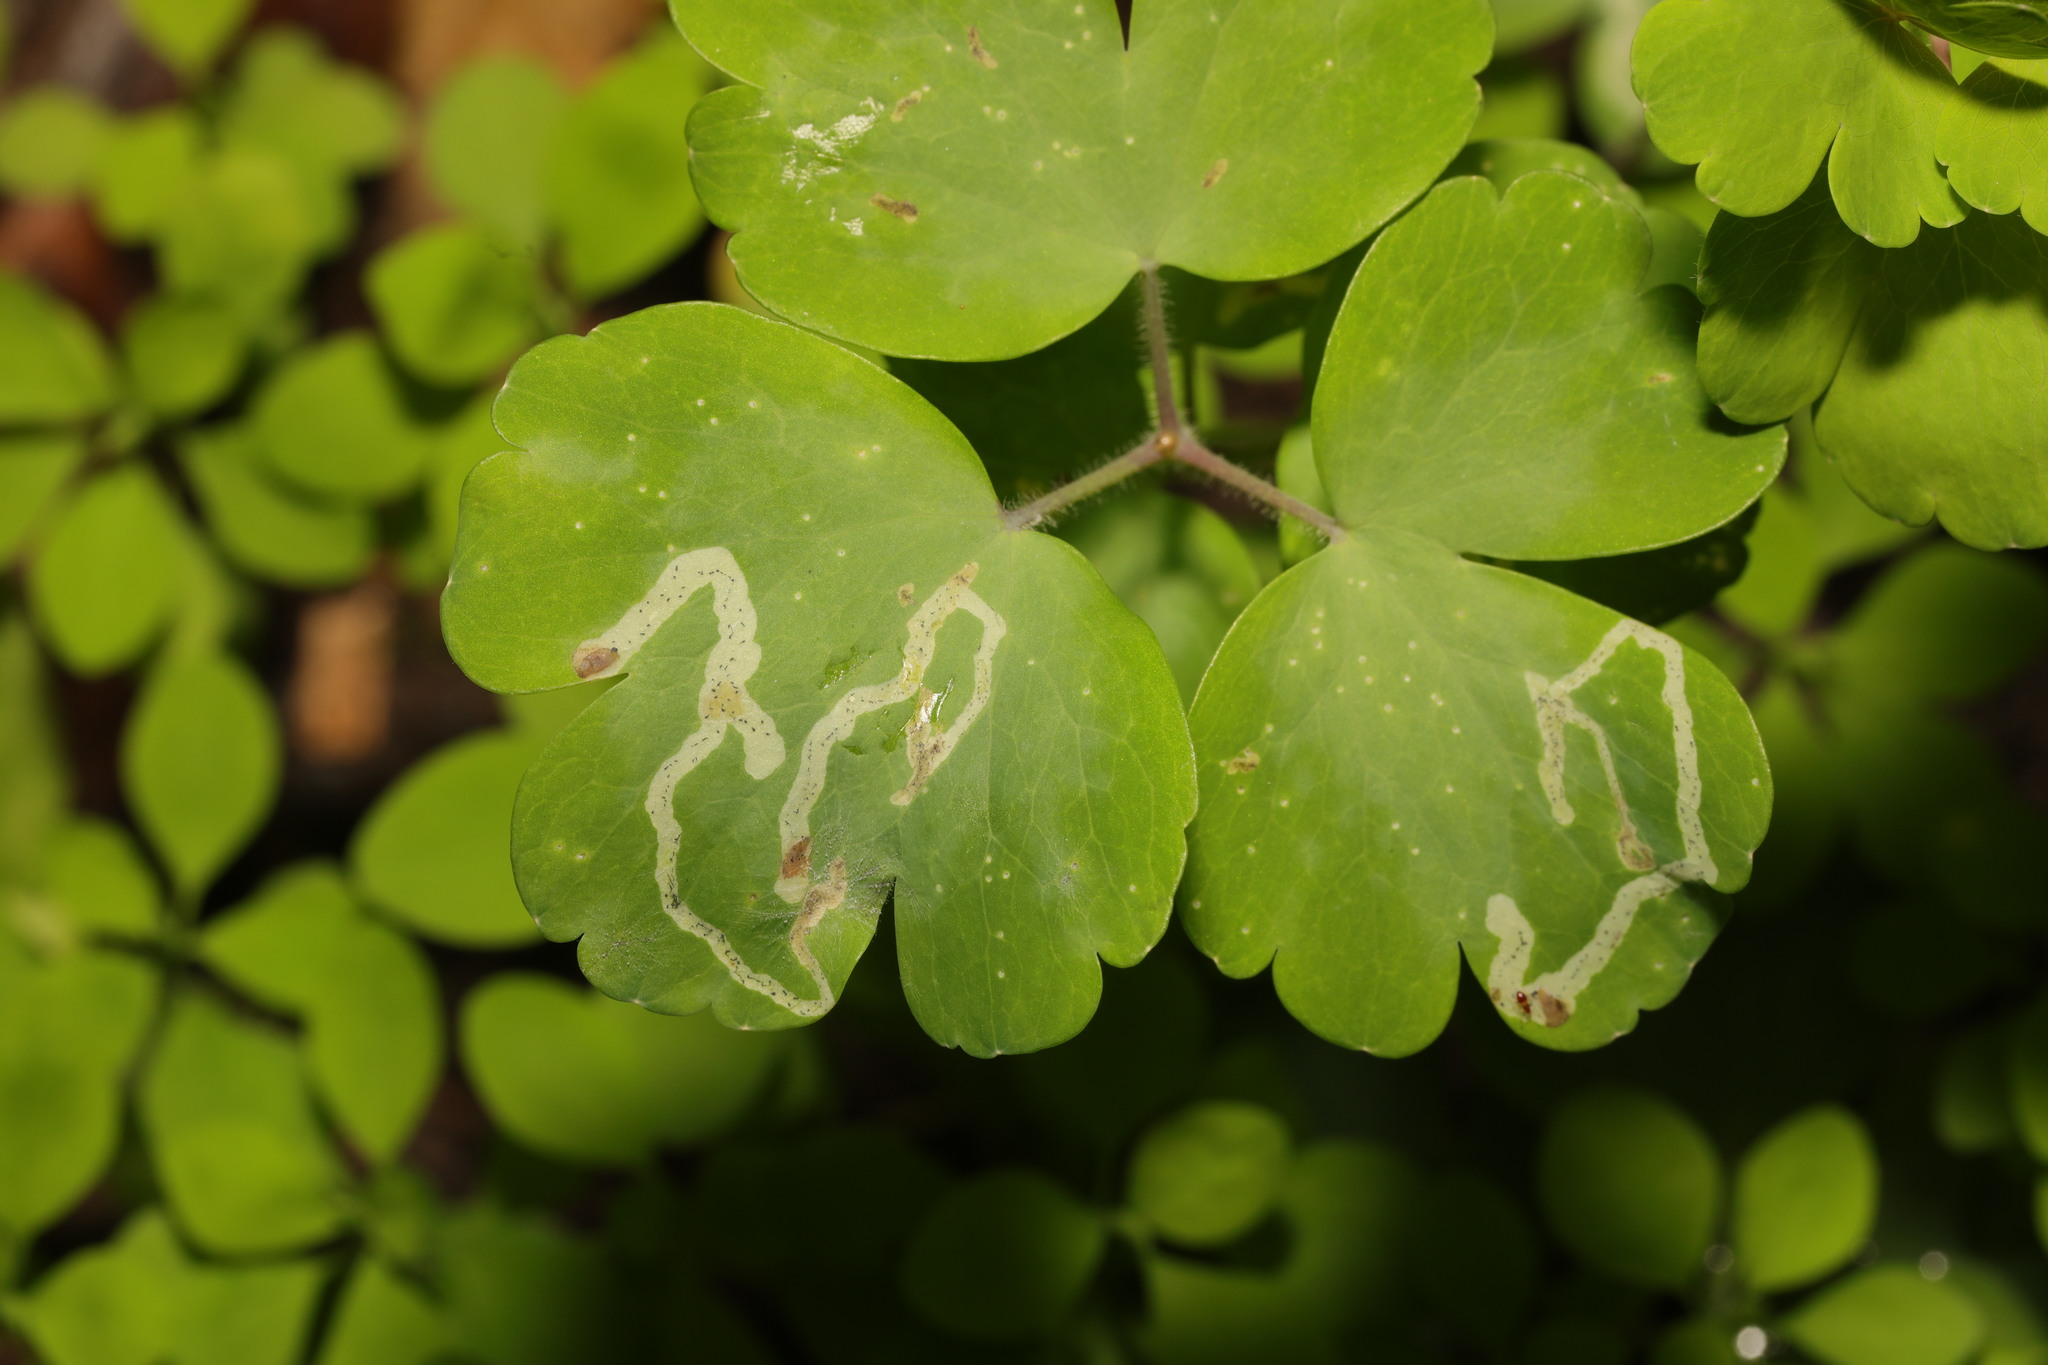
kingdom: Animalia
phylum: Arthropoda
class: Insecta
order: Diptera
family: Agromyzidae
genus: Phytomyza
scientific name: Phytomyza ancholiae
